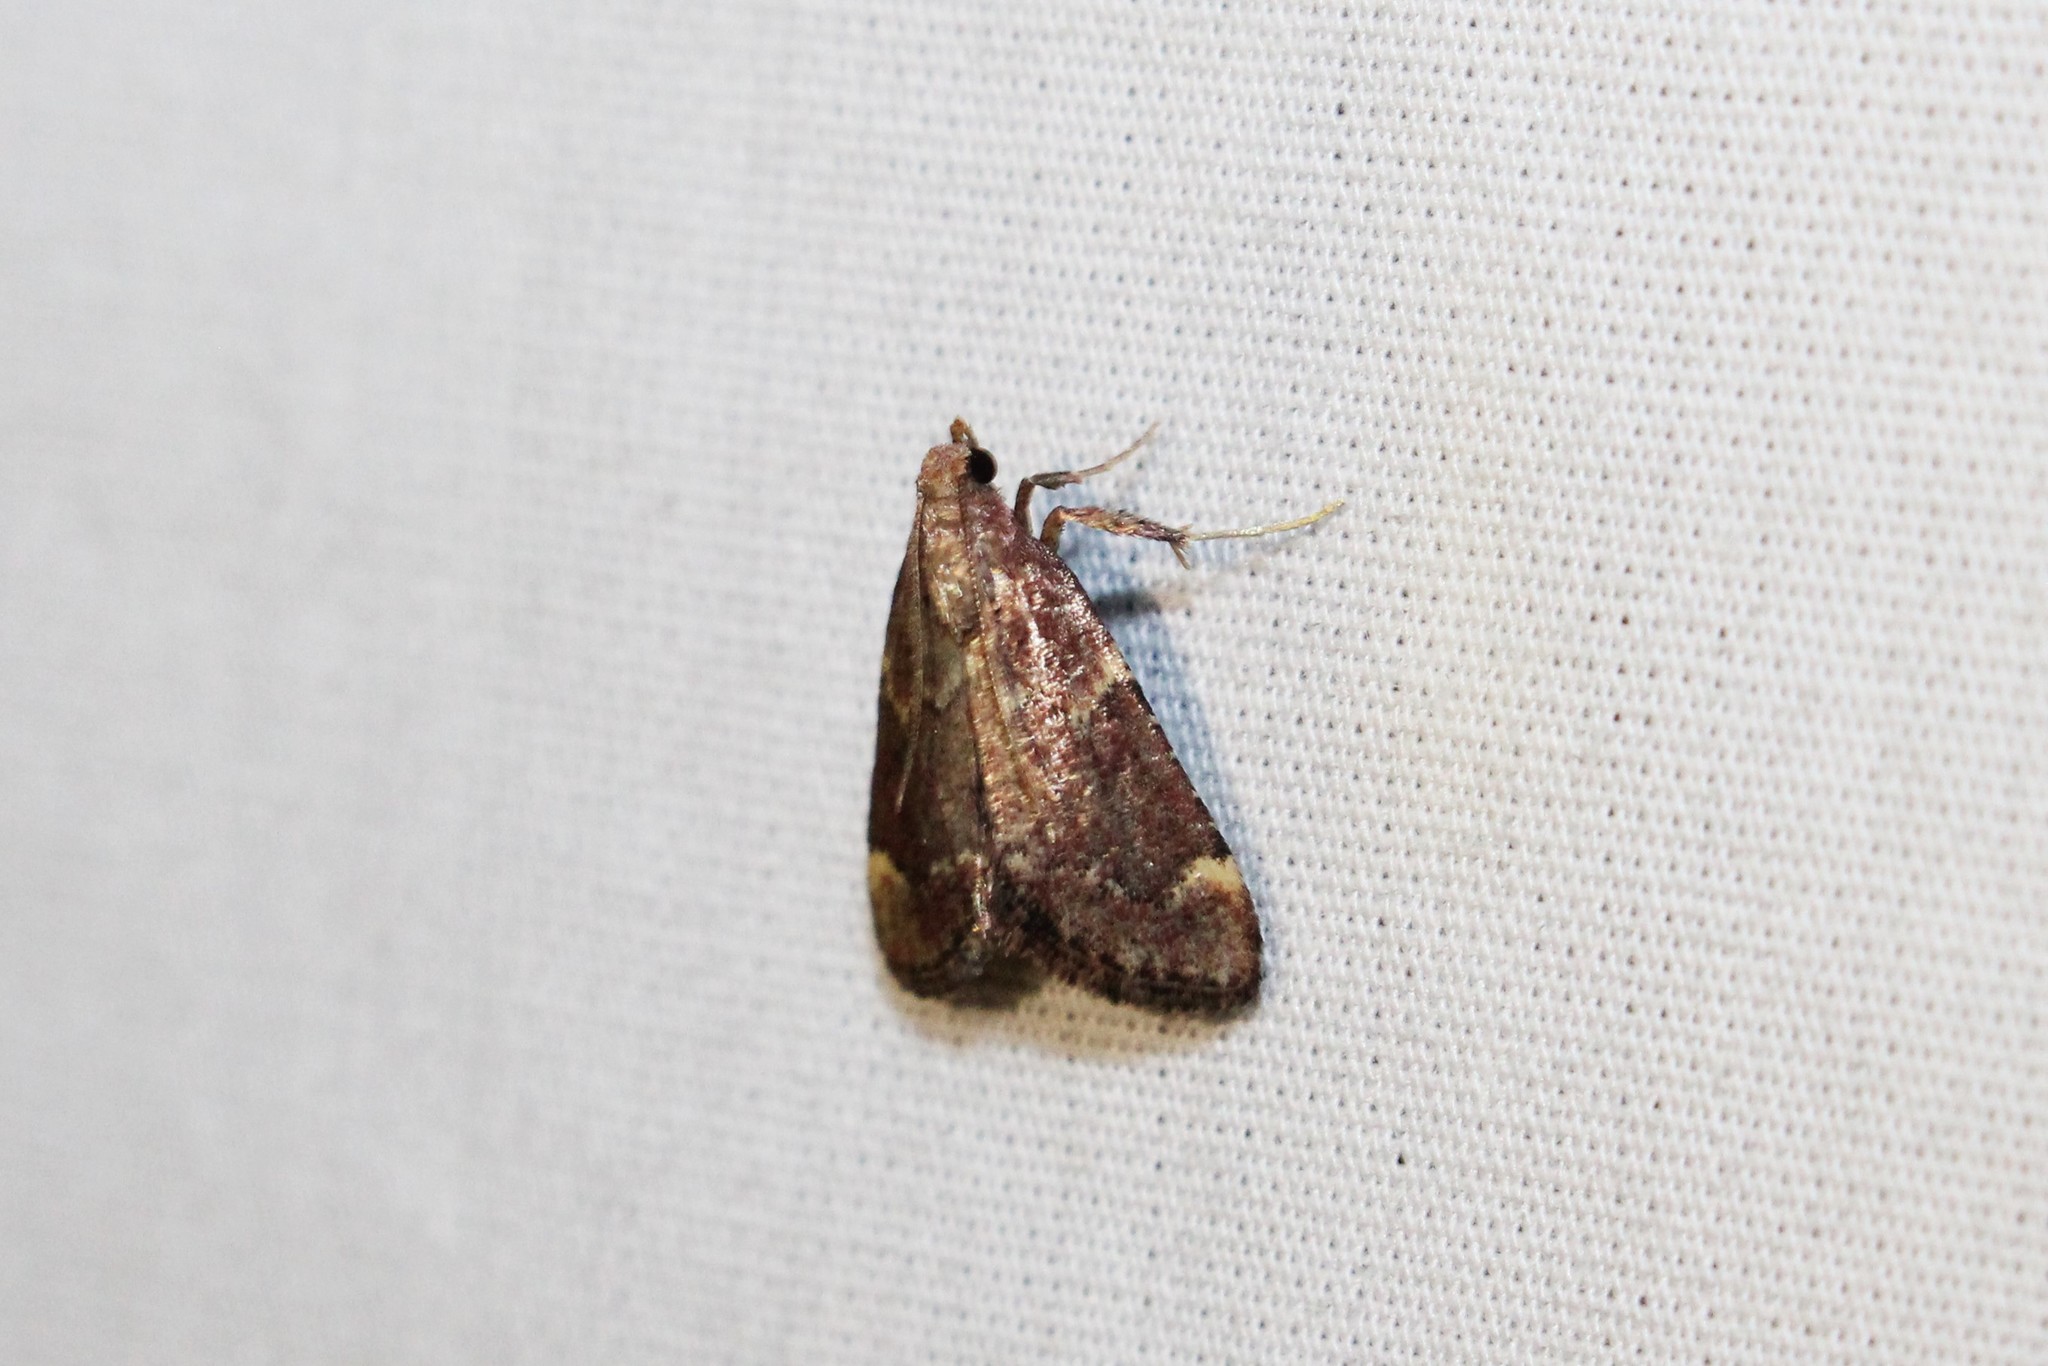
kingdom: Animalia
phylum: Arthropoda
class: Insecta
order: Lepidoptera
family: Pyralidae
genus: Hypsopygia
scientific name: Hypsopygia intermedialis
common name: Red-shawled moth
